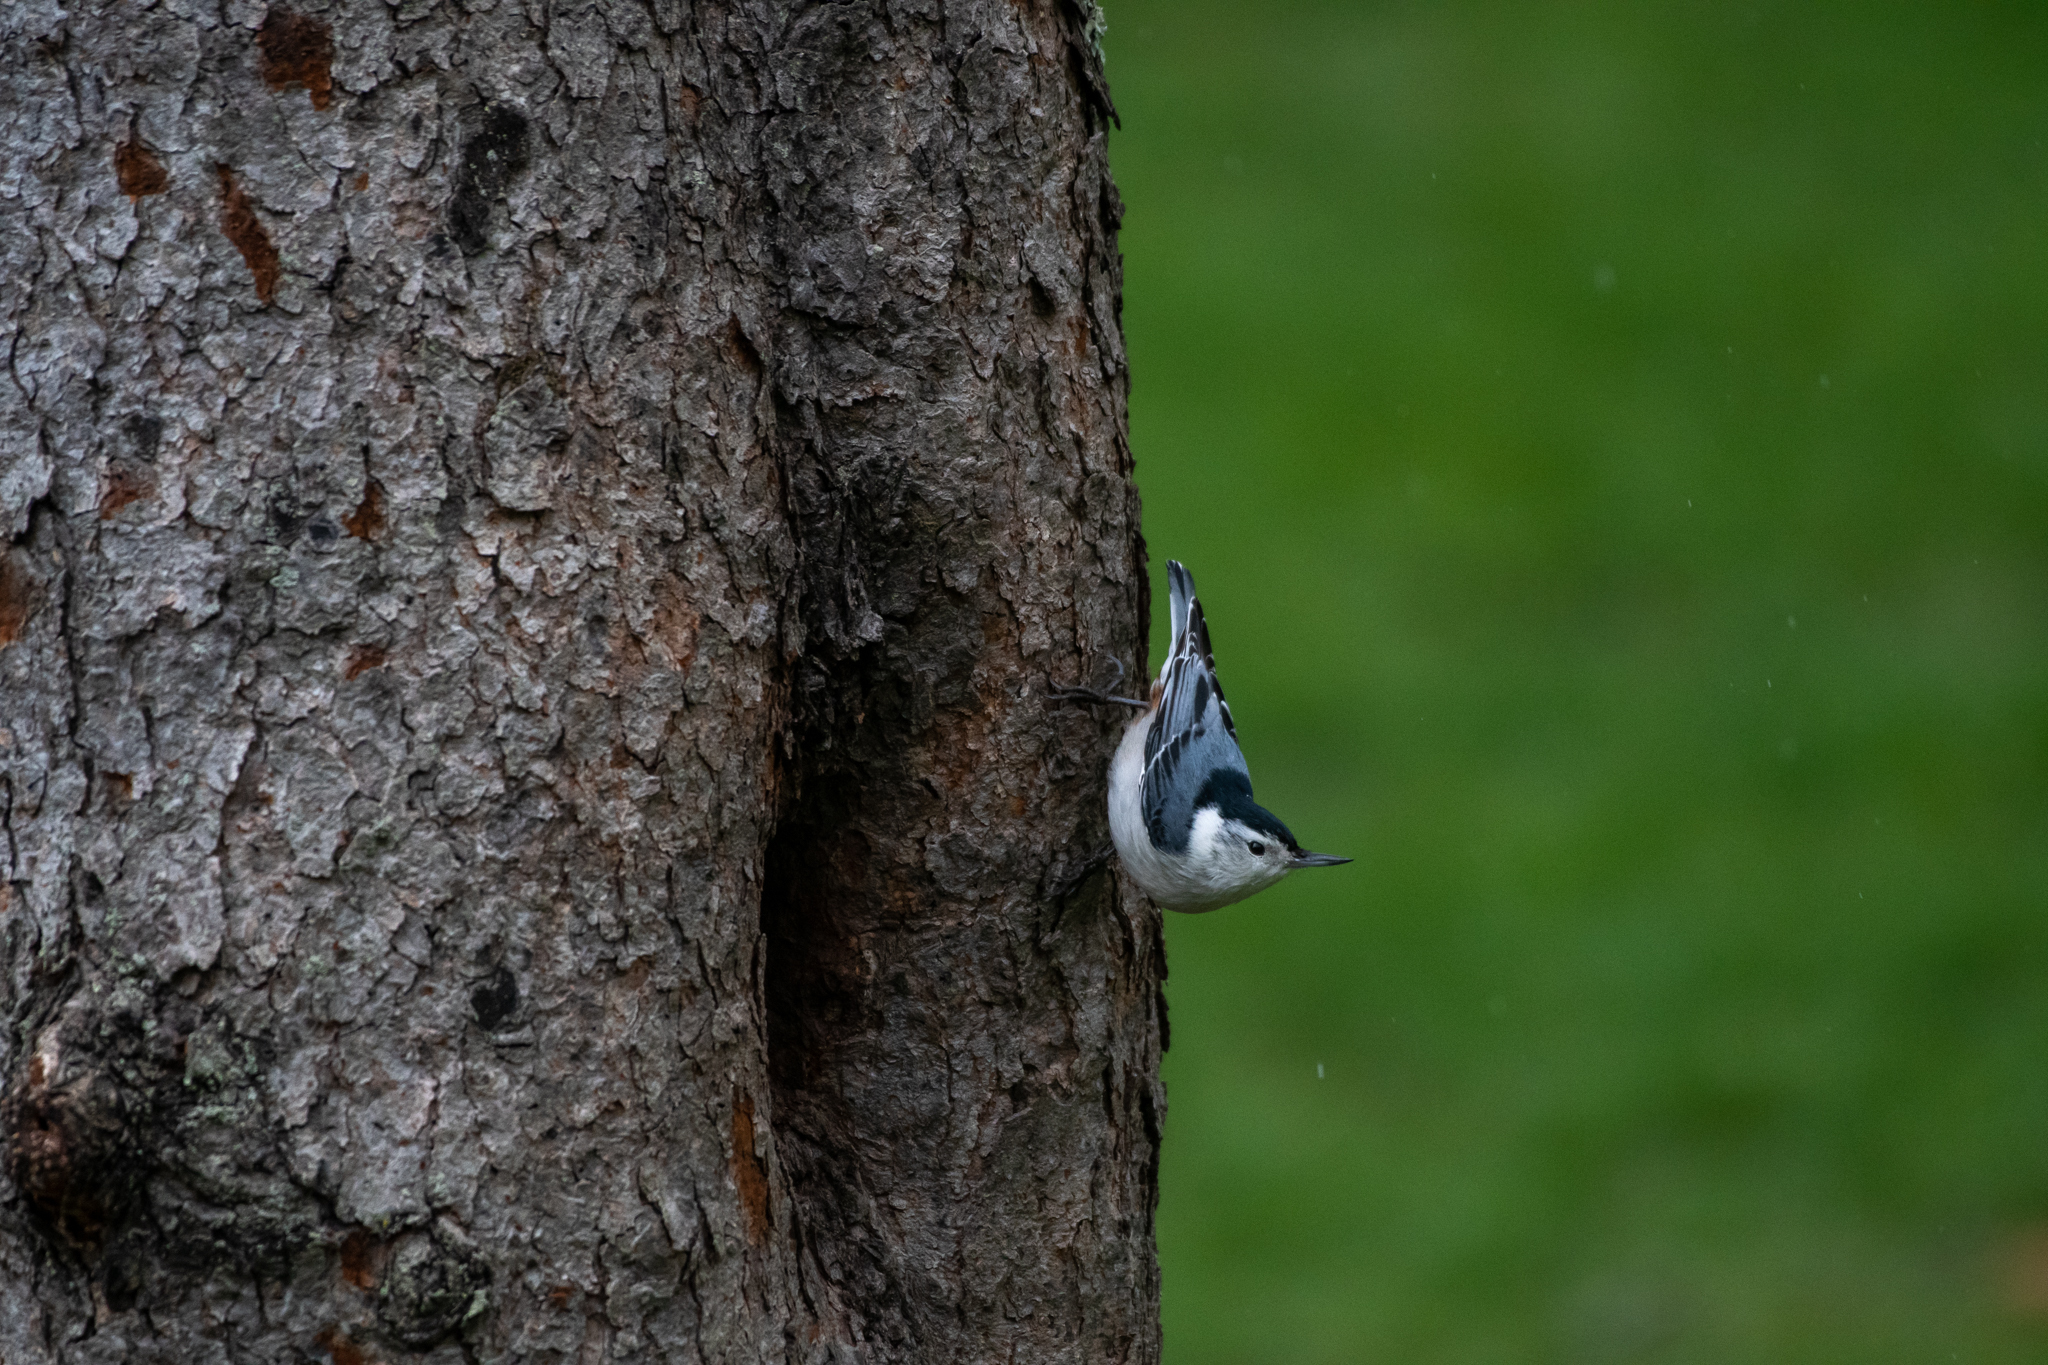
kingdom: Animalia
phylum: Chordata
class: Aves
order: Passeriformes
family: Sittidae
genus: Sitta
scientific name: Sitta carolinensis
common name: White-breasted nuthatch
